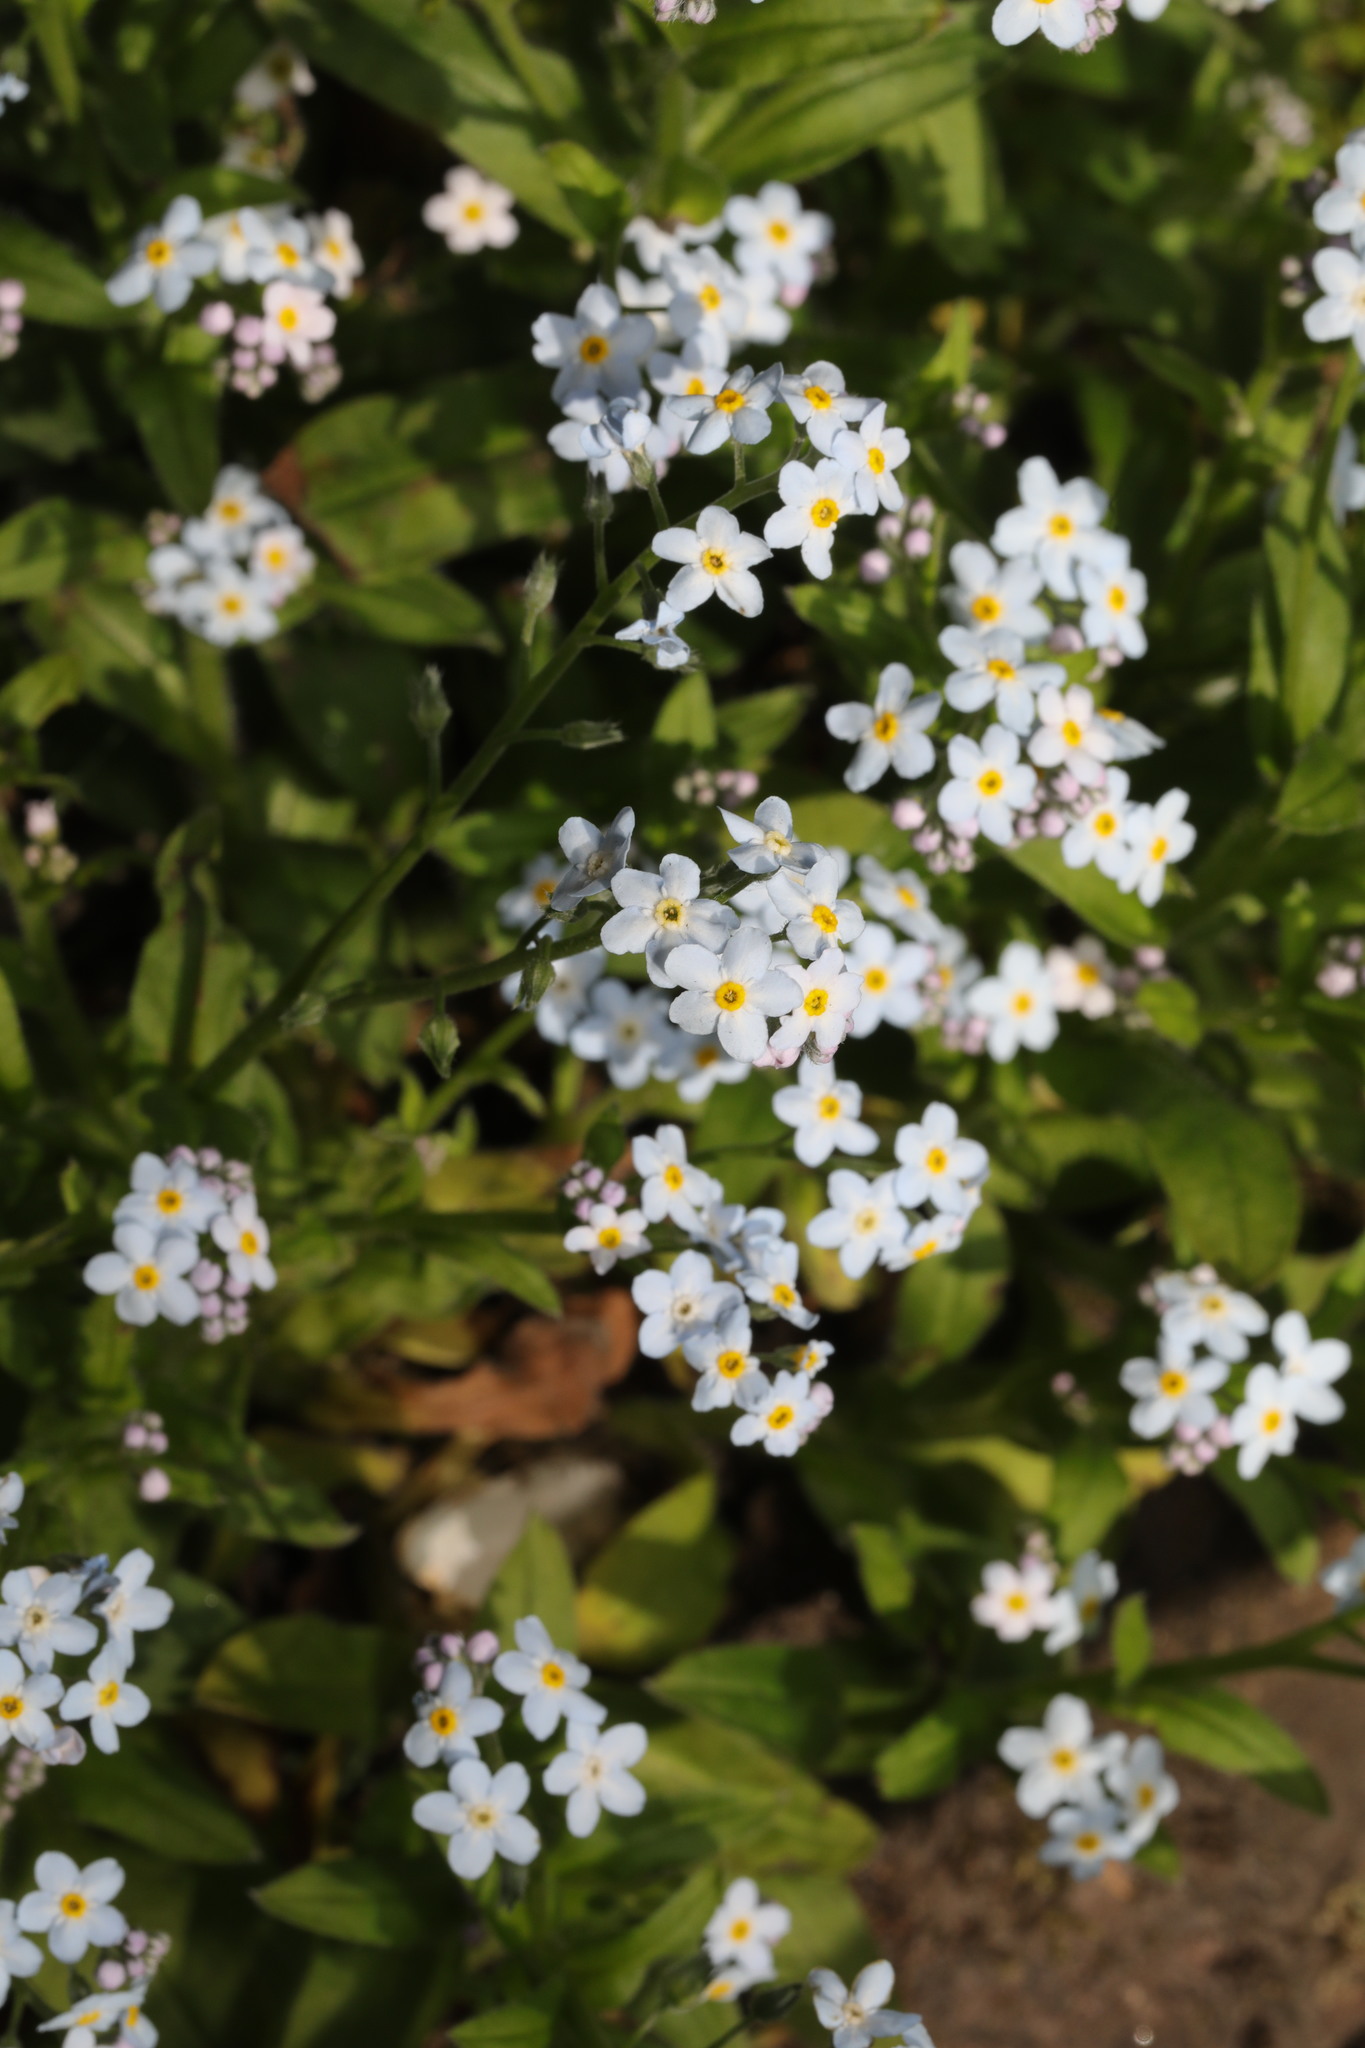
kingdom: Plantae
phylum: Tracheophyta
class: Magnoliopsida
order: Boraginales
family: Boraginaceae
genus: Myosotis
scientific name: Myosotis sylvatica
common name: Wood forget-me-not
